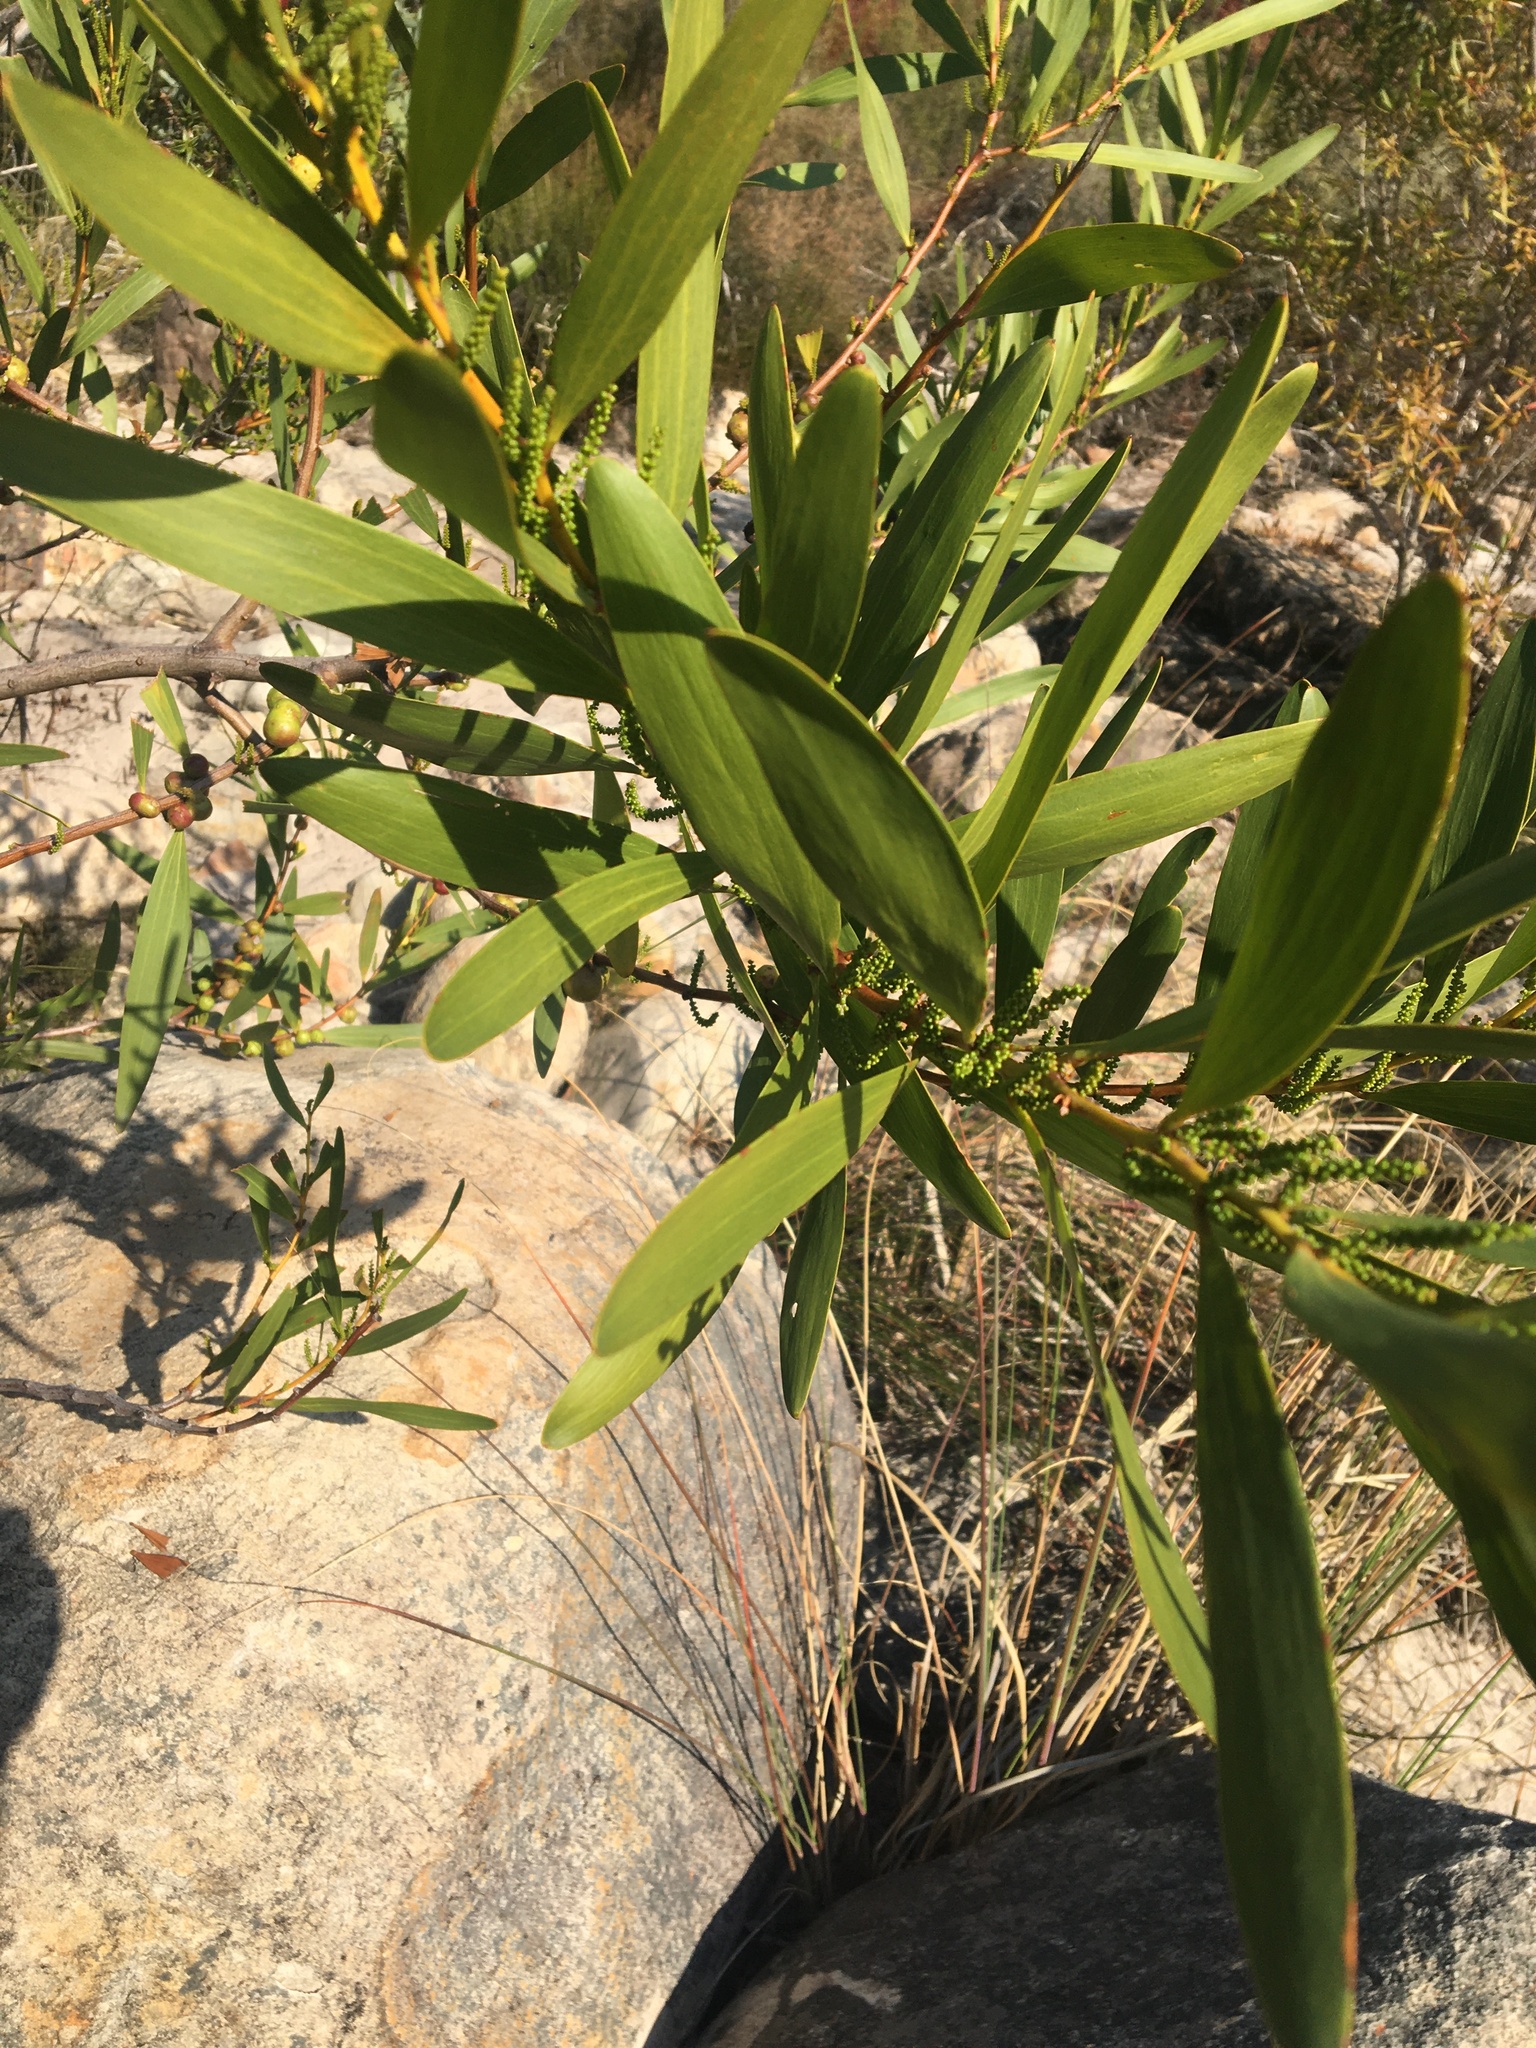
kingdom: Plantae
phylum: Tracheophyta
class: Magnoliopsida
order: Fabales
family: Fabaceae
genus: Acacia
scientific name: Acacia longifolia
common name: Sydney golden wattle
